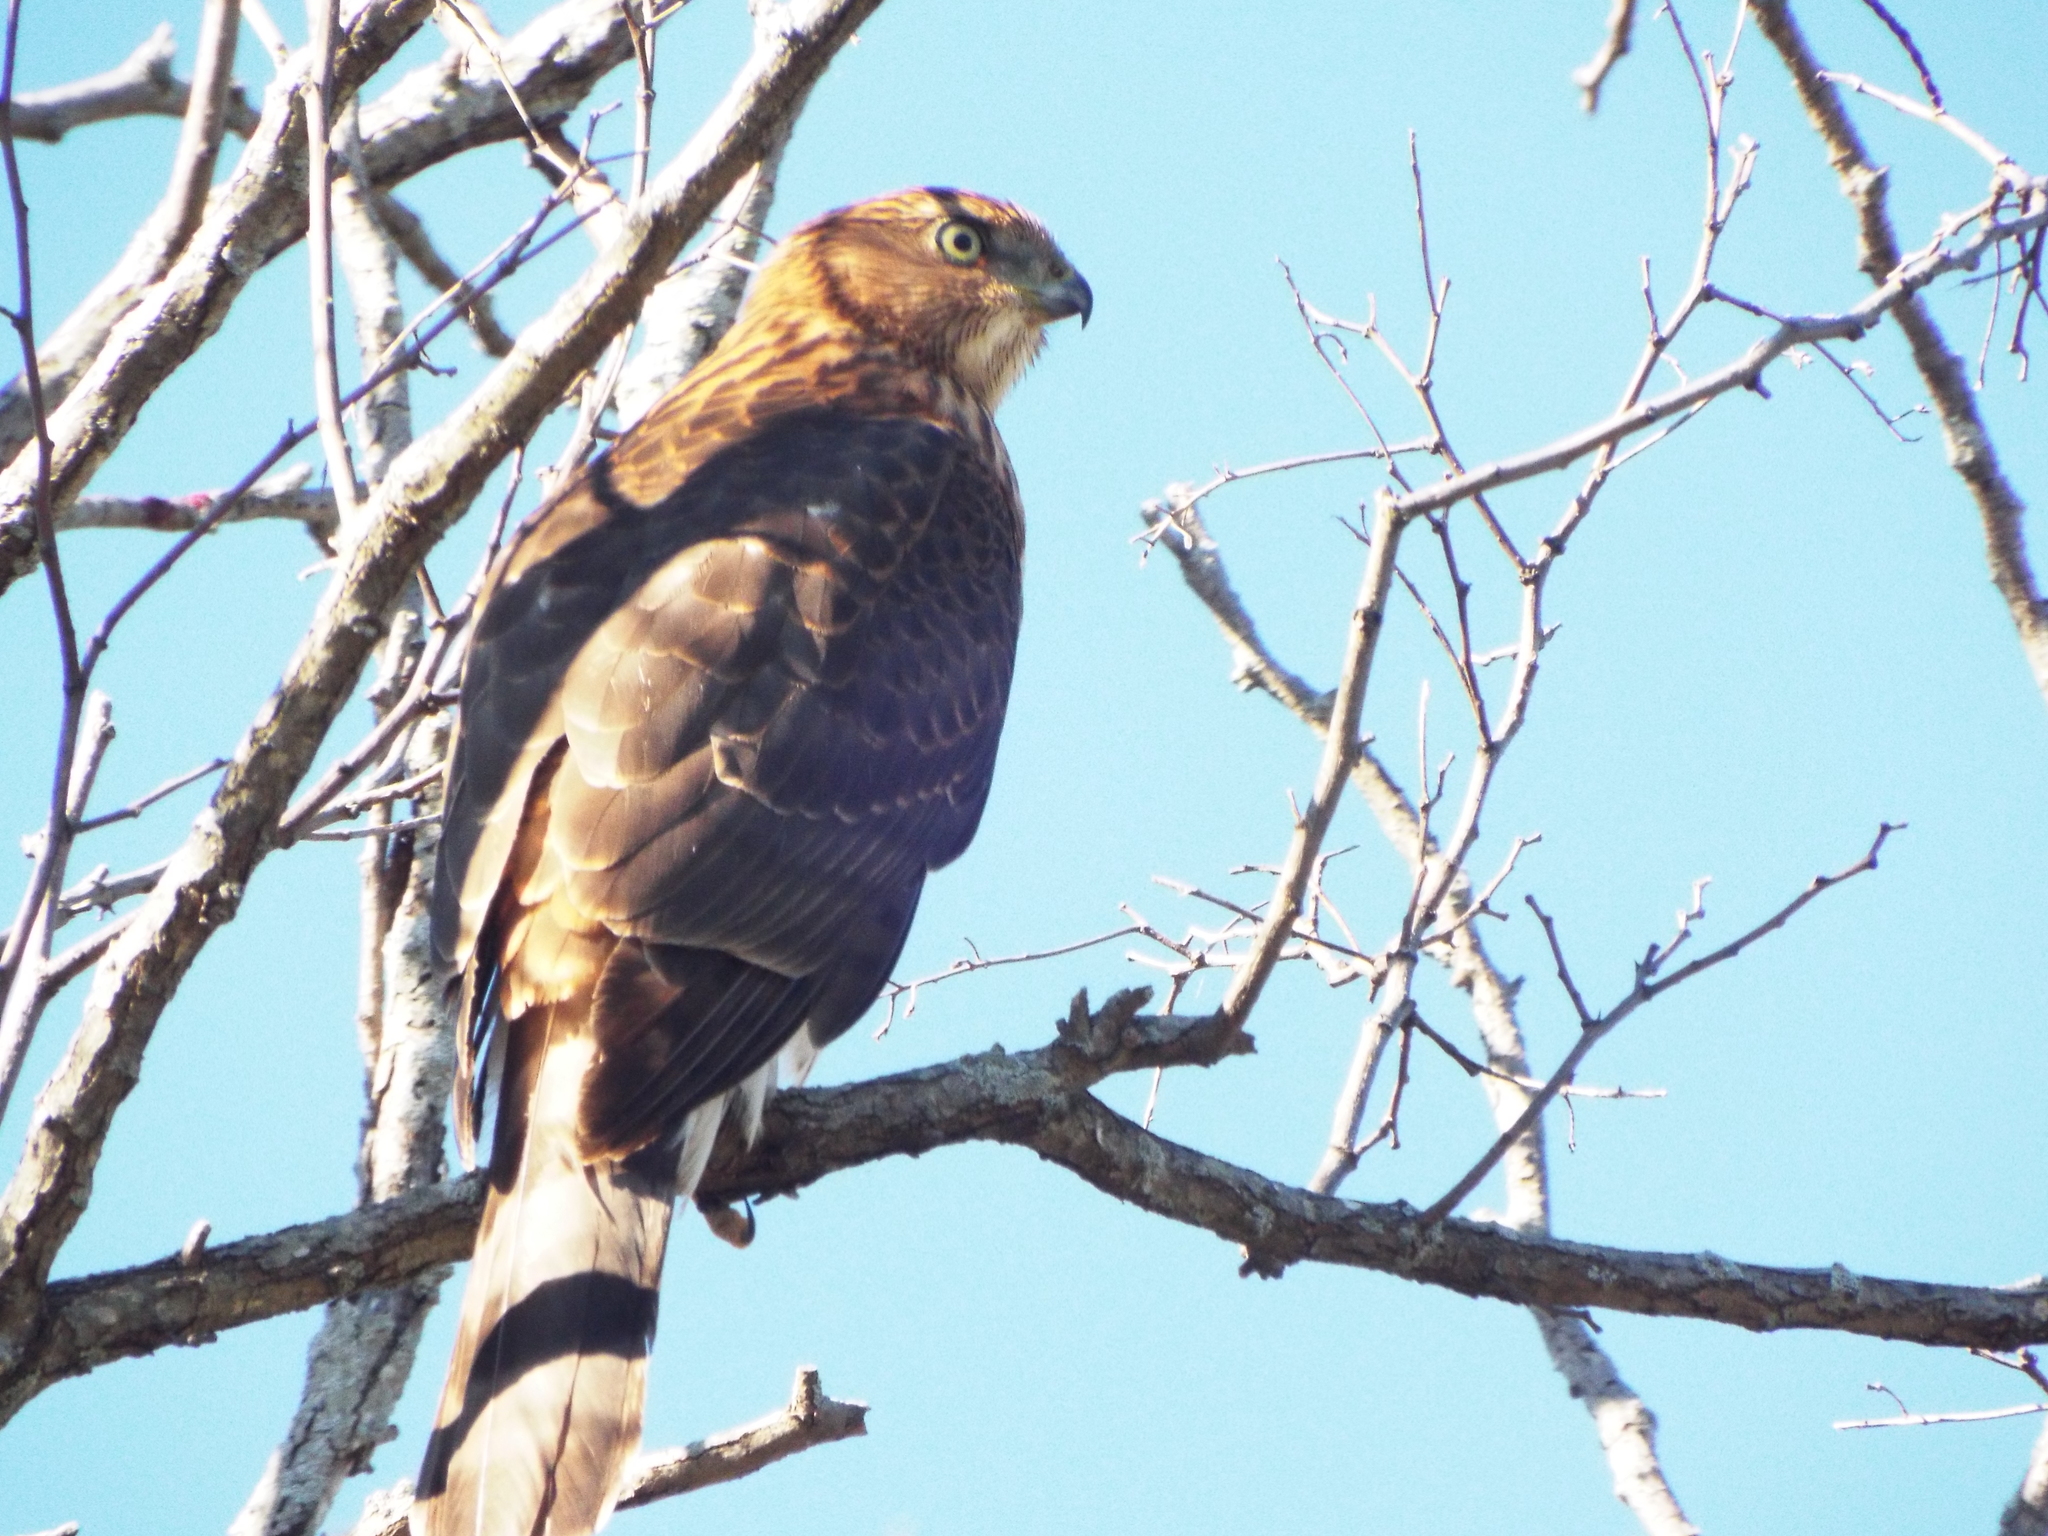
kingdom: Animalia
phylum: Chordata
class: Aves
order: Accipitriformes
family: Accipitridae
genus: Accipiter
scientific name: Accipiter cooperii
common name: Cooper's hawk
